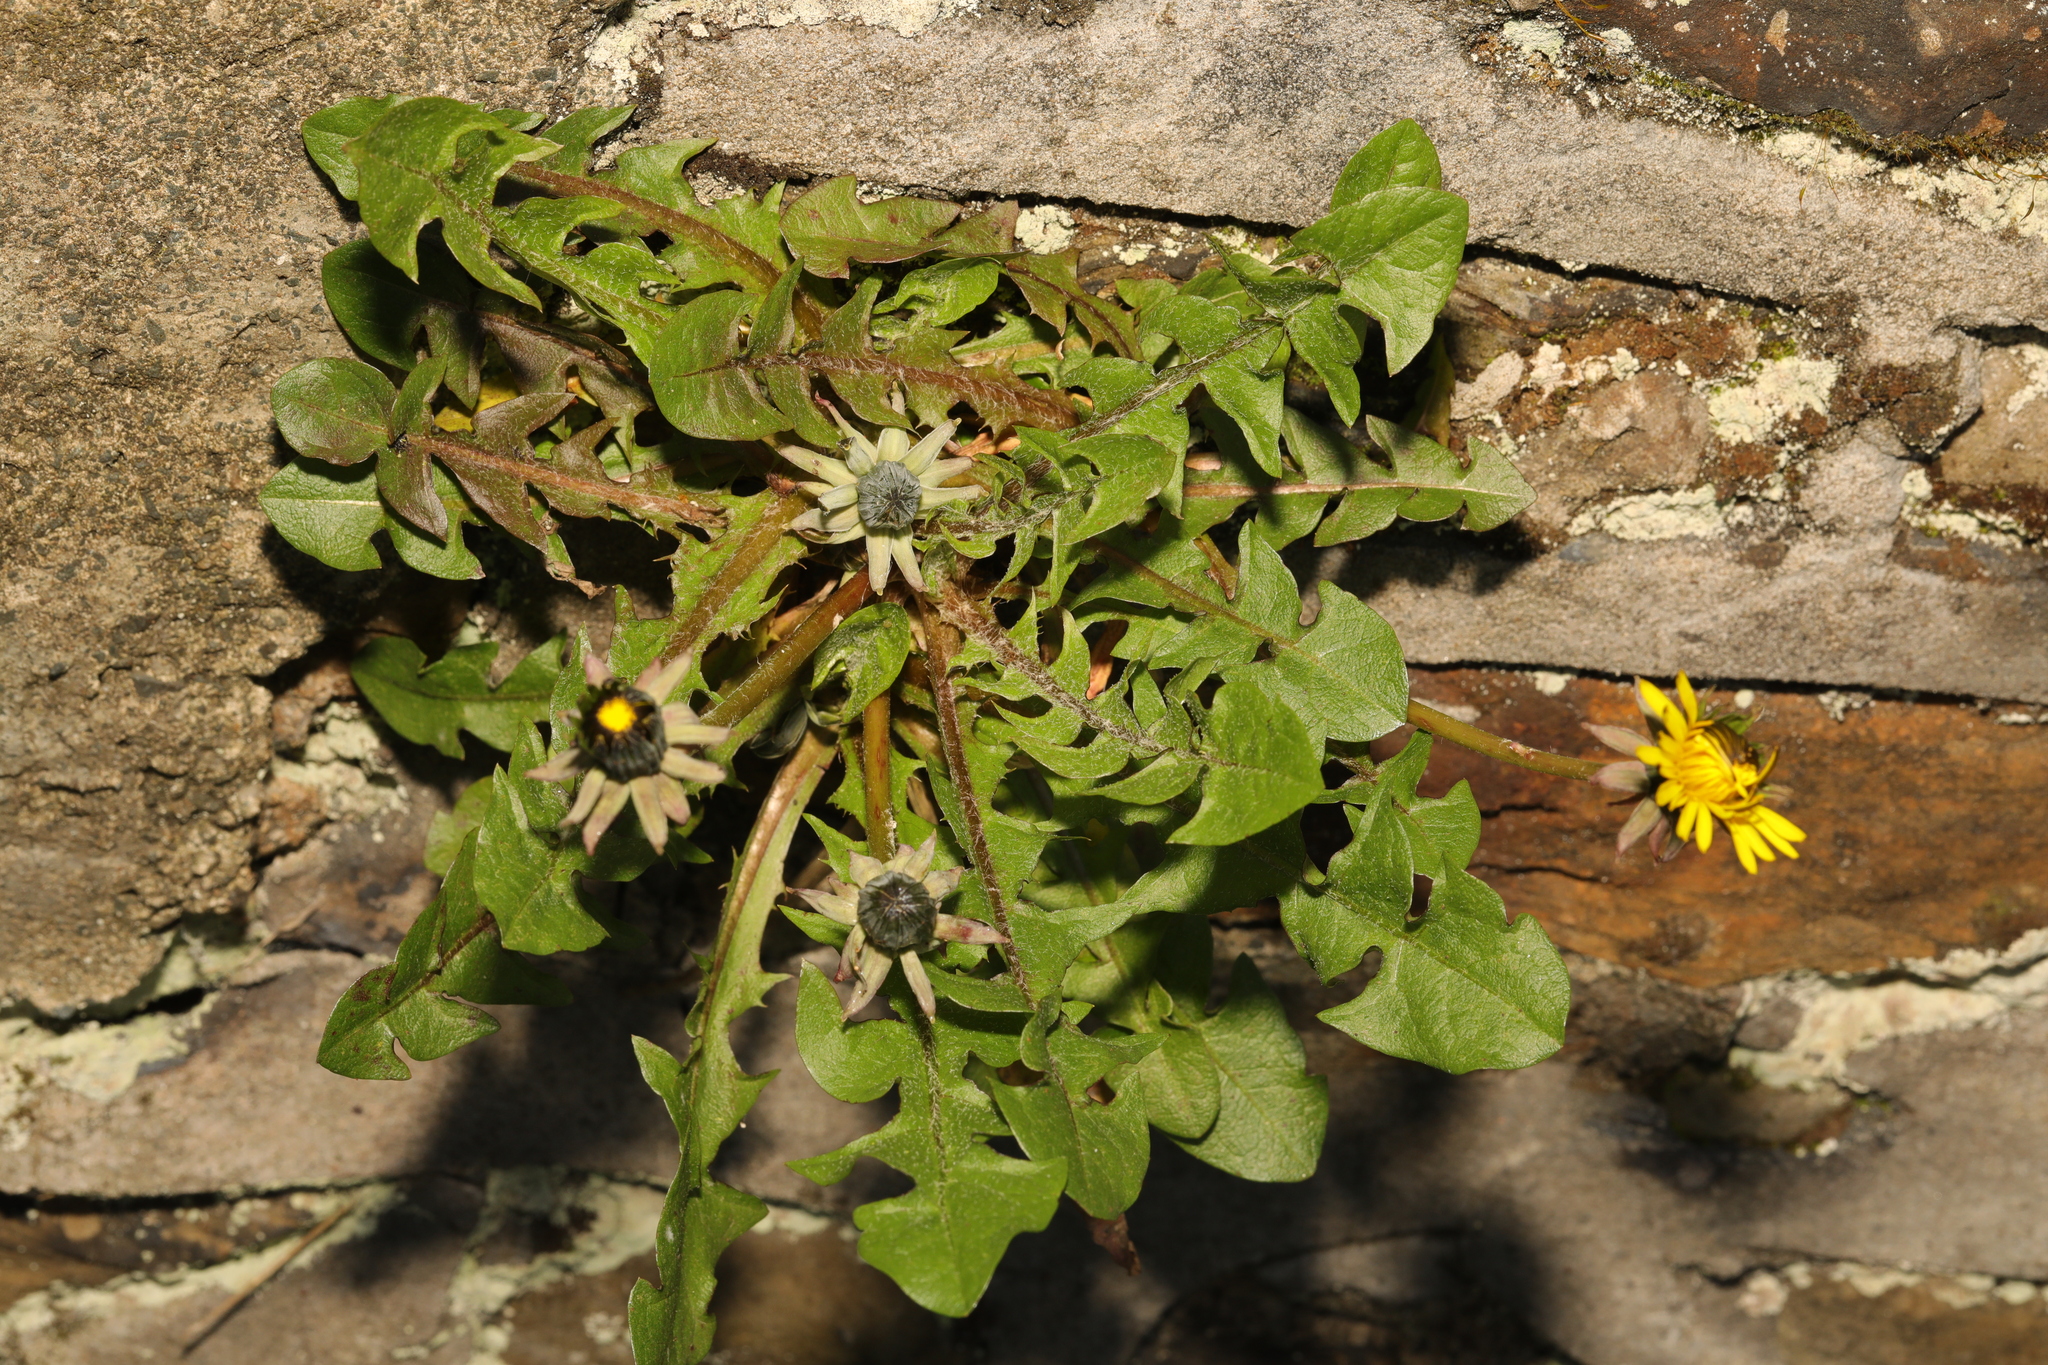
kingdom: Plantae
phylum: Tracheophyta
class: Magnoliopsida
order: Asterales
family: Asteraceae
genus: Taraxacum
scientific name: Taraxacum officinale
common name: Common dandelion
